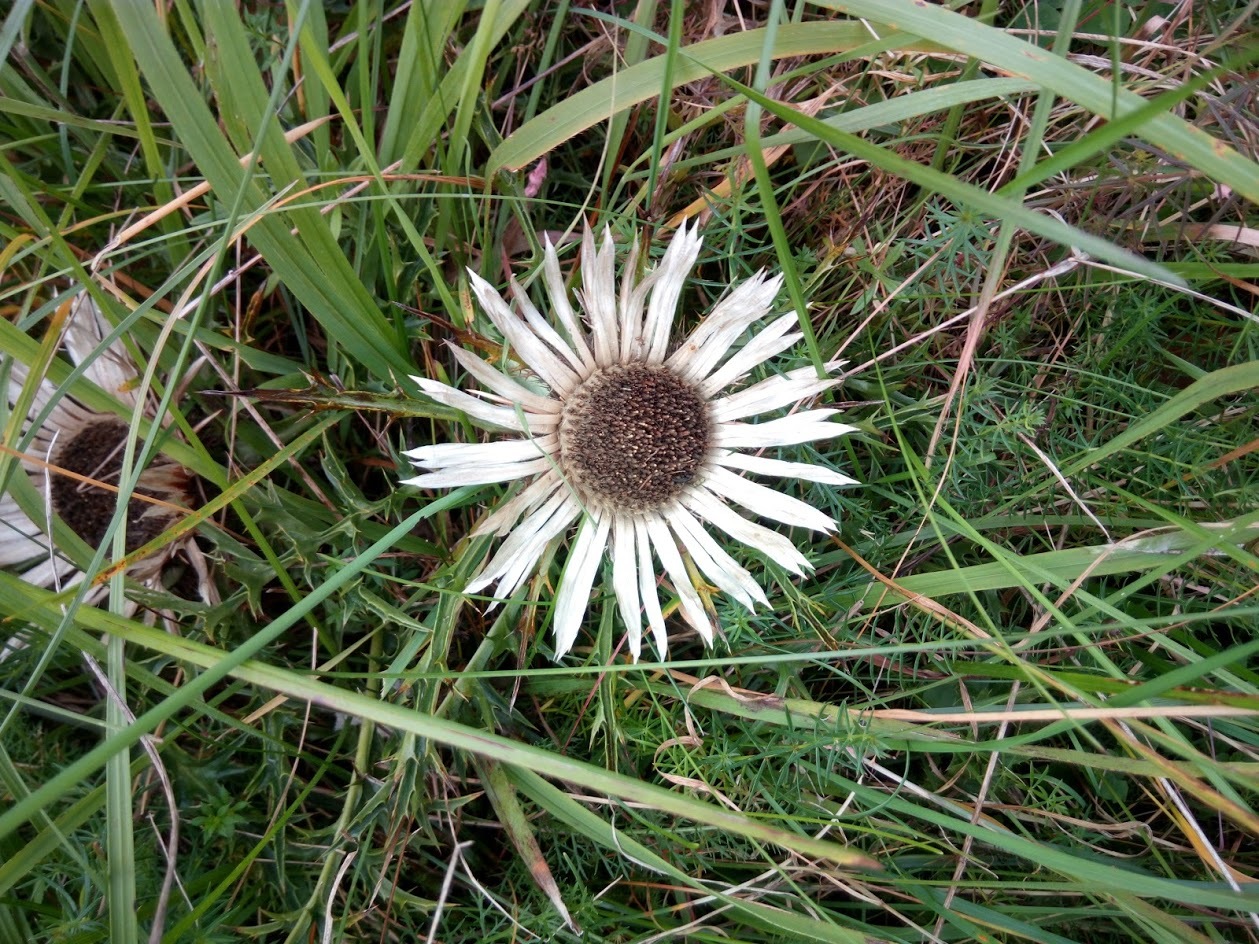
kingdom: Plantae
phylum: Tracheophyta
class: Magnoliopsida
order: Asterales
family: Asteraceae
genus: Carlina
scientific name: Carlina acaulis
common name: Stemless carline thistle
